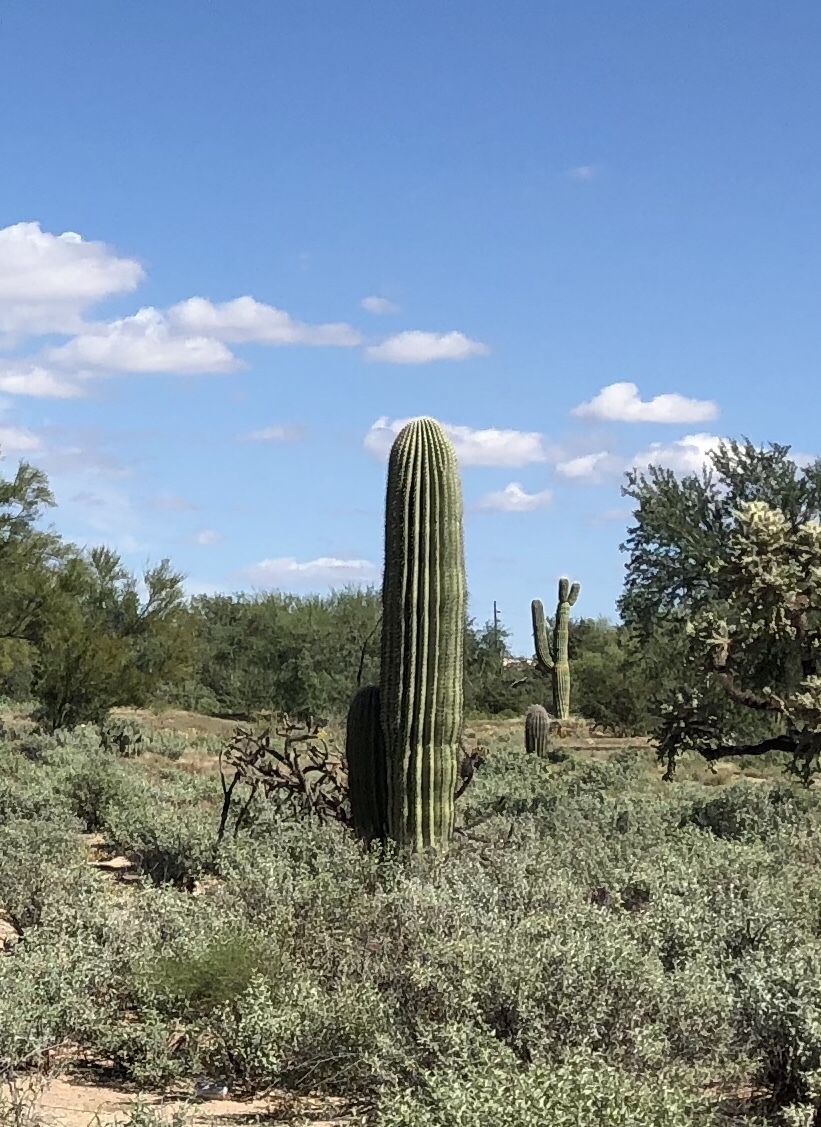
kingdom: Plantae
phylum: Tracheophyta
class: Magnoliopsida
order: Caryophyllales
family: Cactaceae
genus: Carnegiea
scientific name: Carnegiea gigantea
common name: Saguaro
